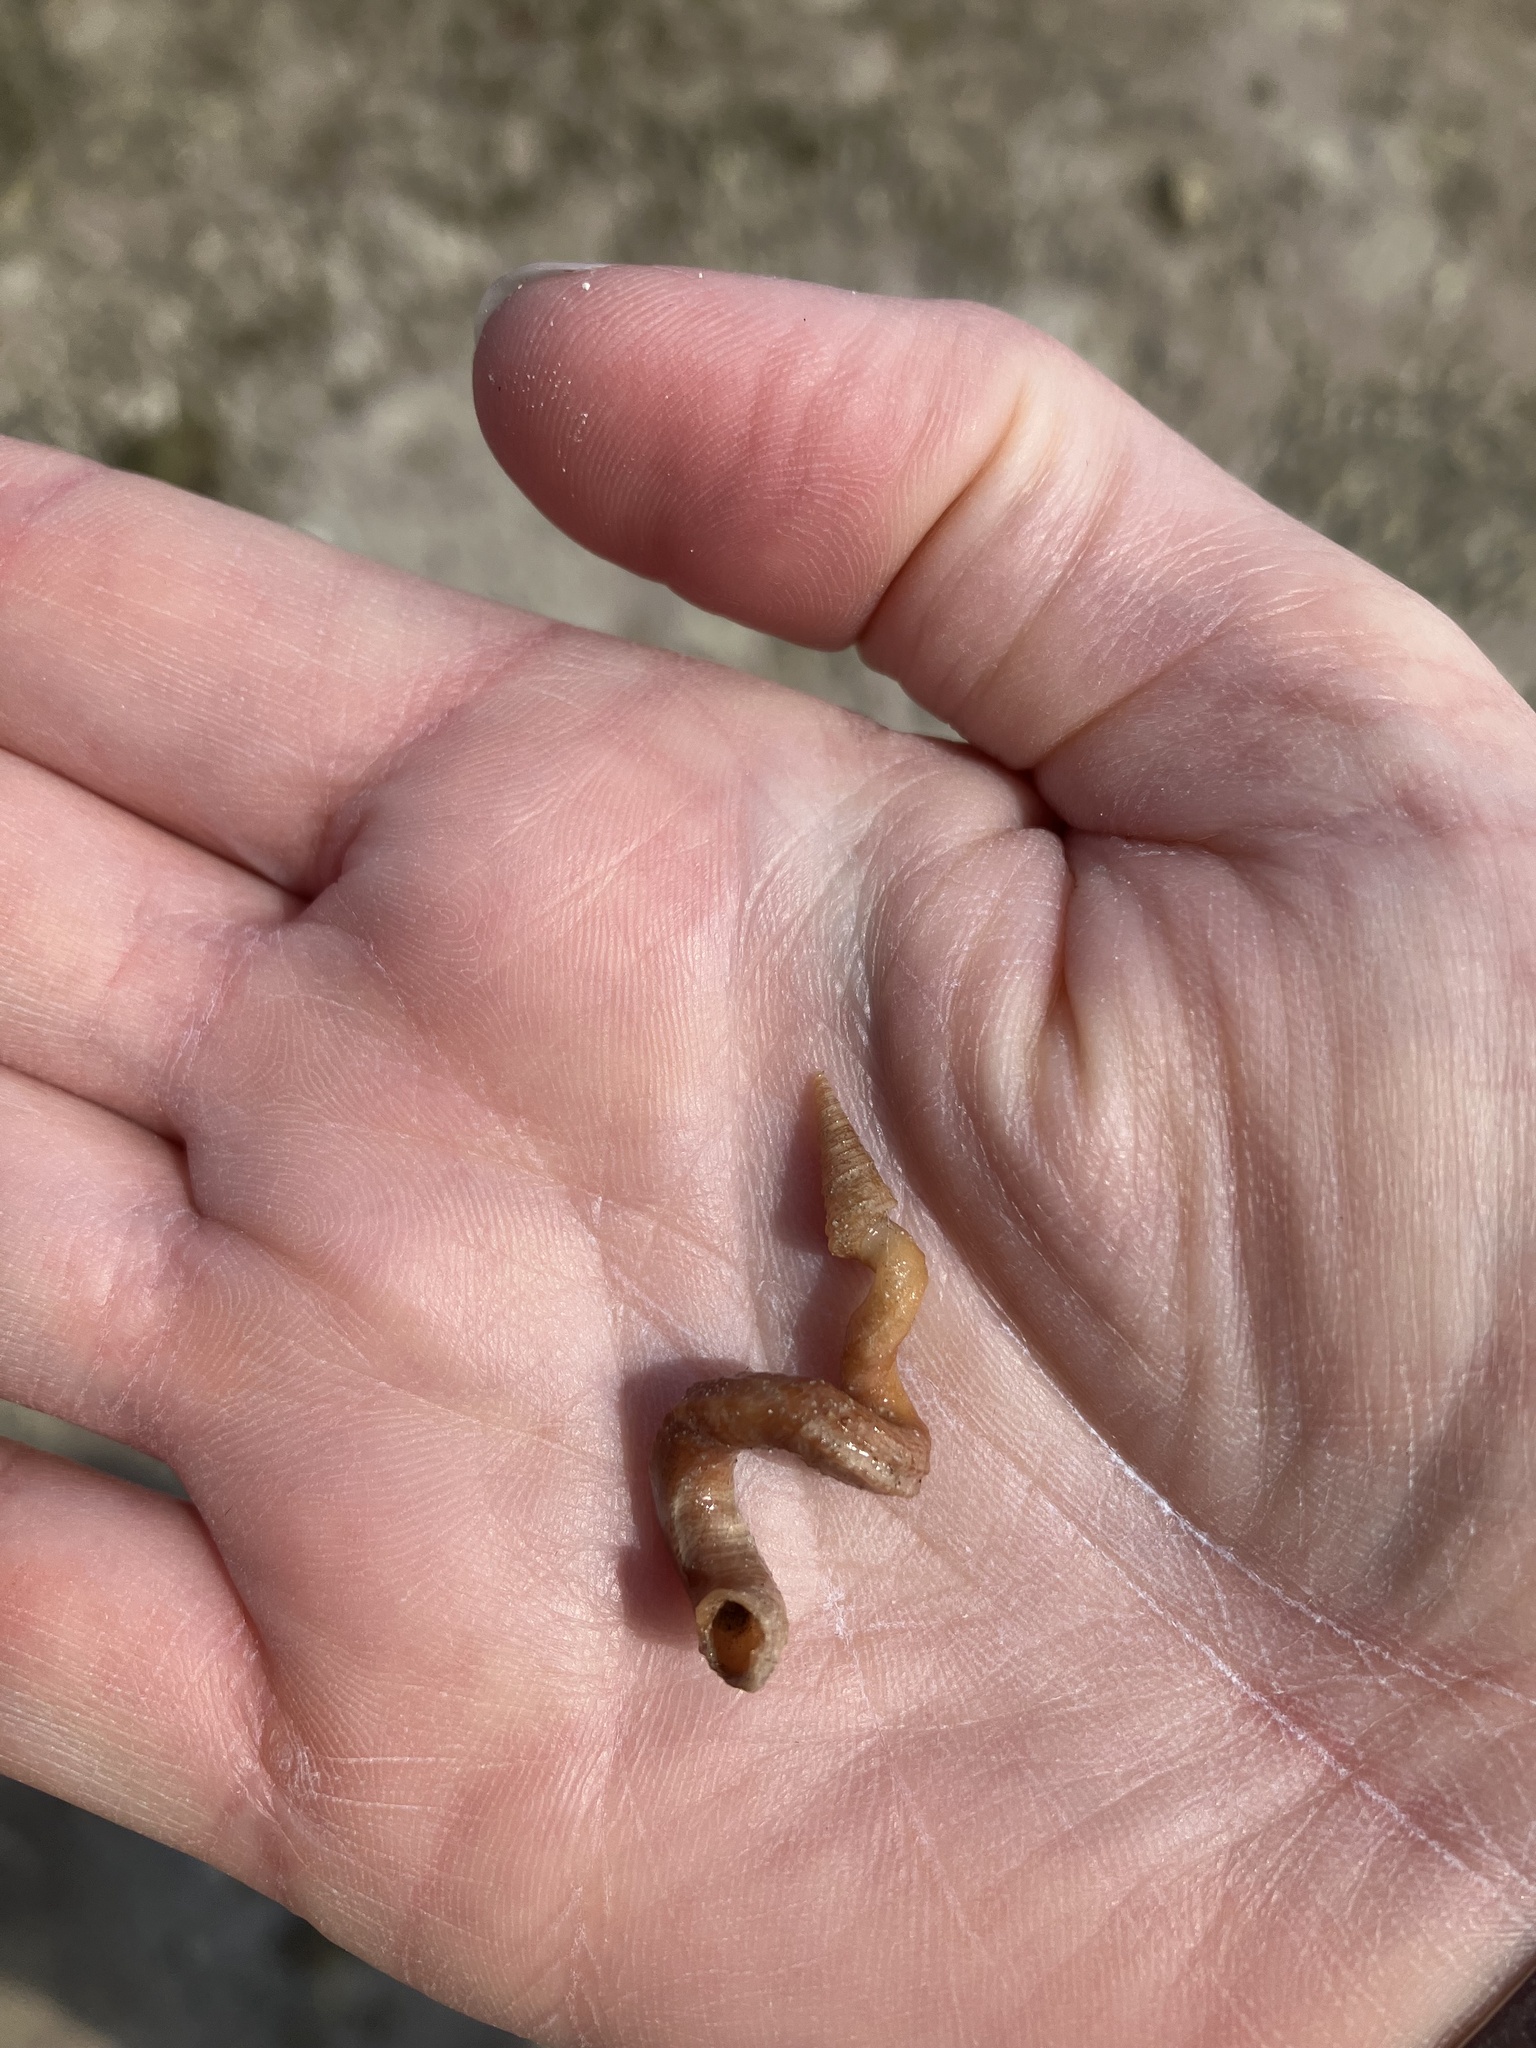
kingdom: Animalia
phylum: Mollusca
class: Gastropoda
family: Turritellidae
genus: Vermicularia
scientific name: Vermicularia fargoi
